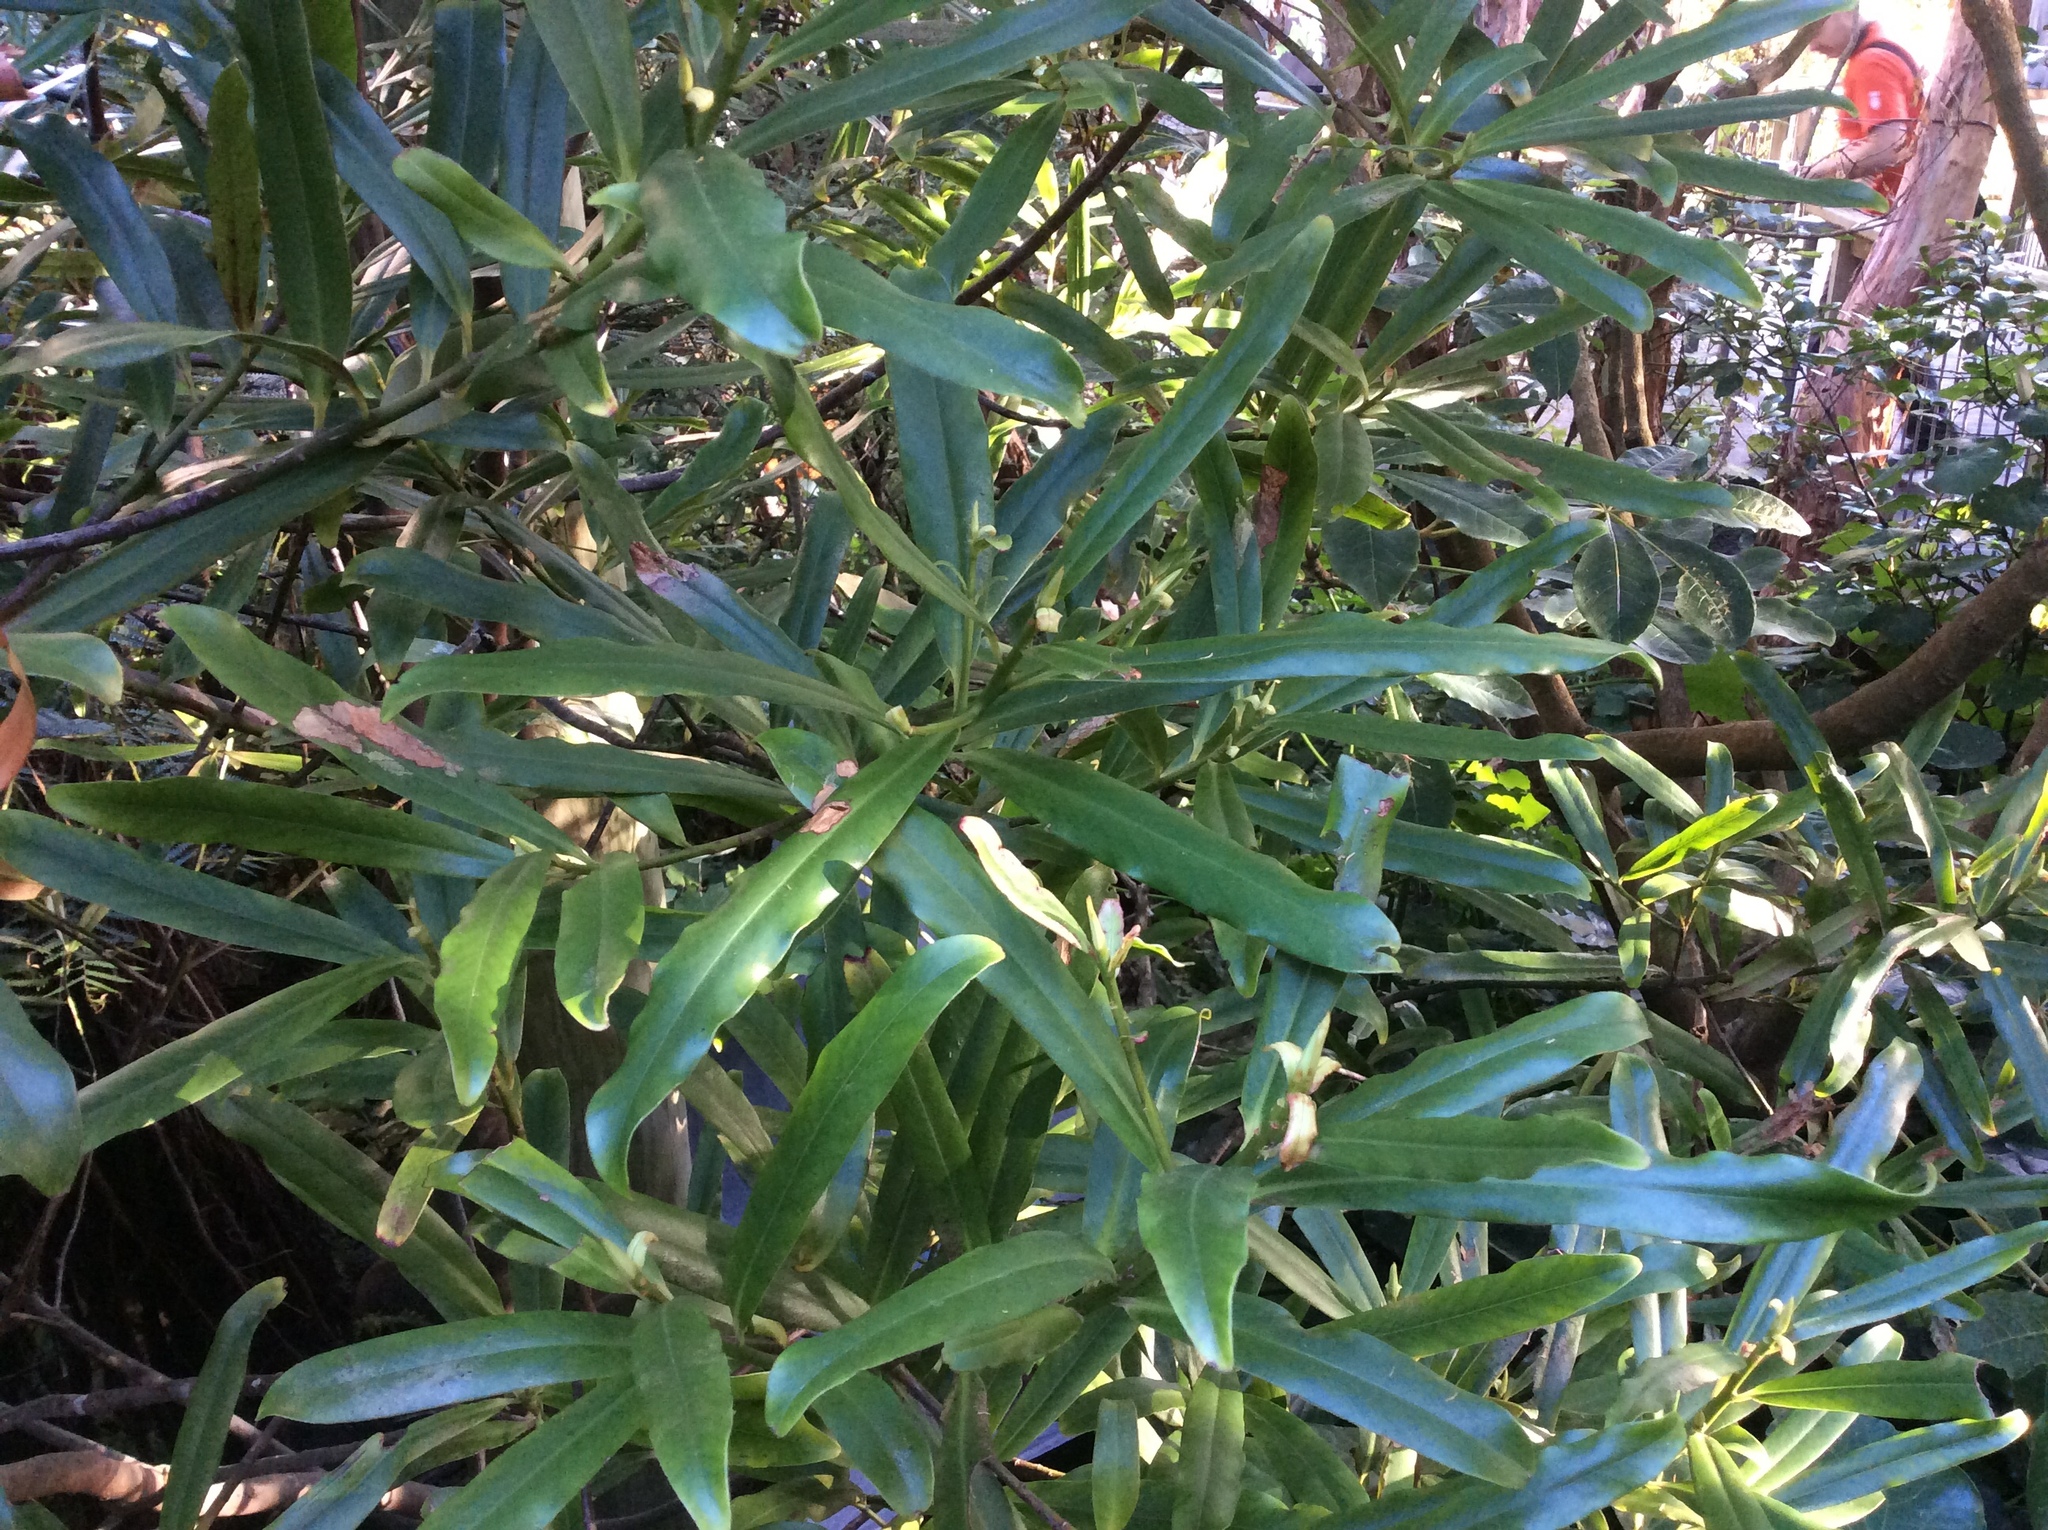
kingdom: Plantae
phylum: Tracheophyta
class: Magnoliopsida
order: Ericales
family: Primulaceae
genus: Myrsine
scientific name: Myrsine salicina
